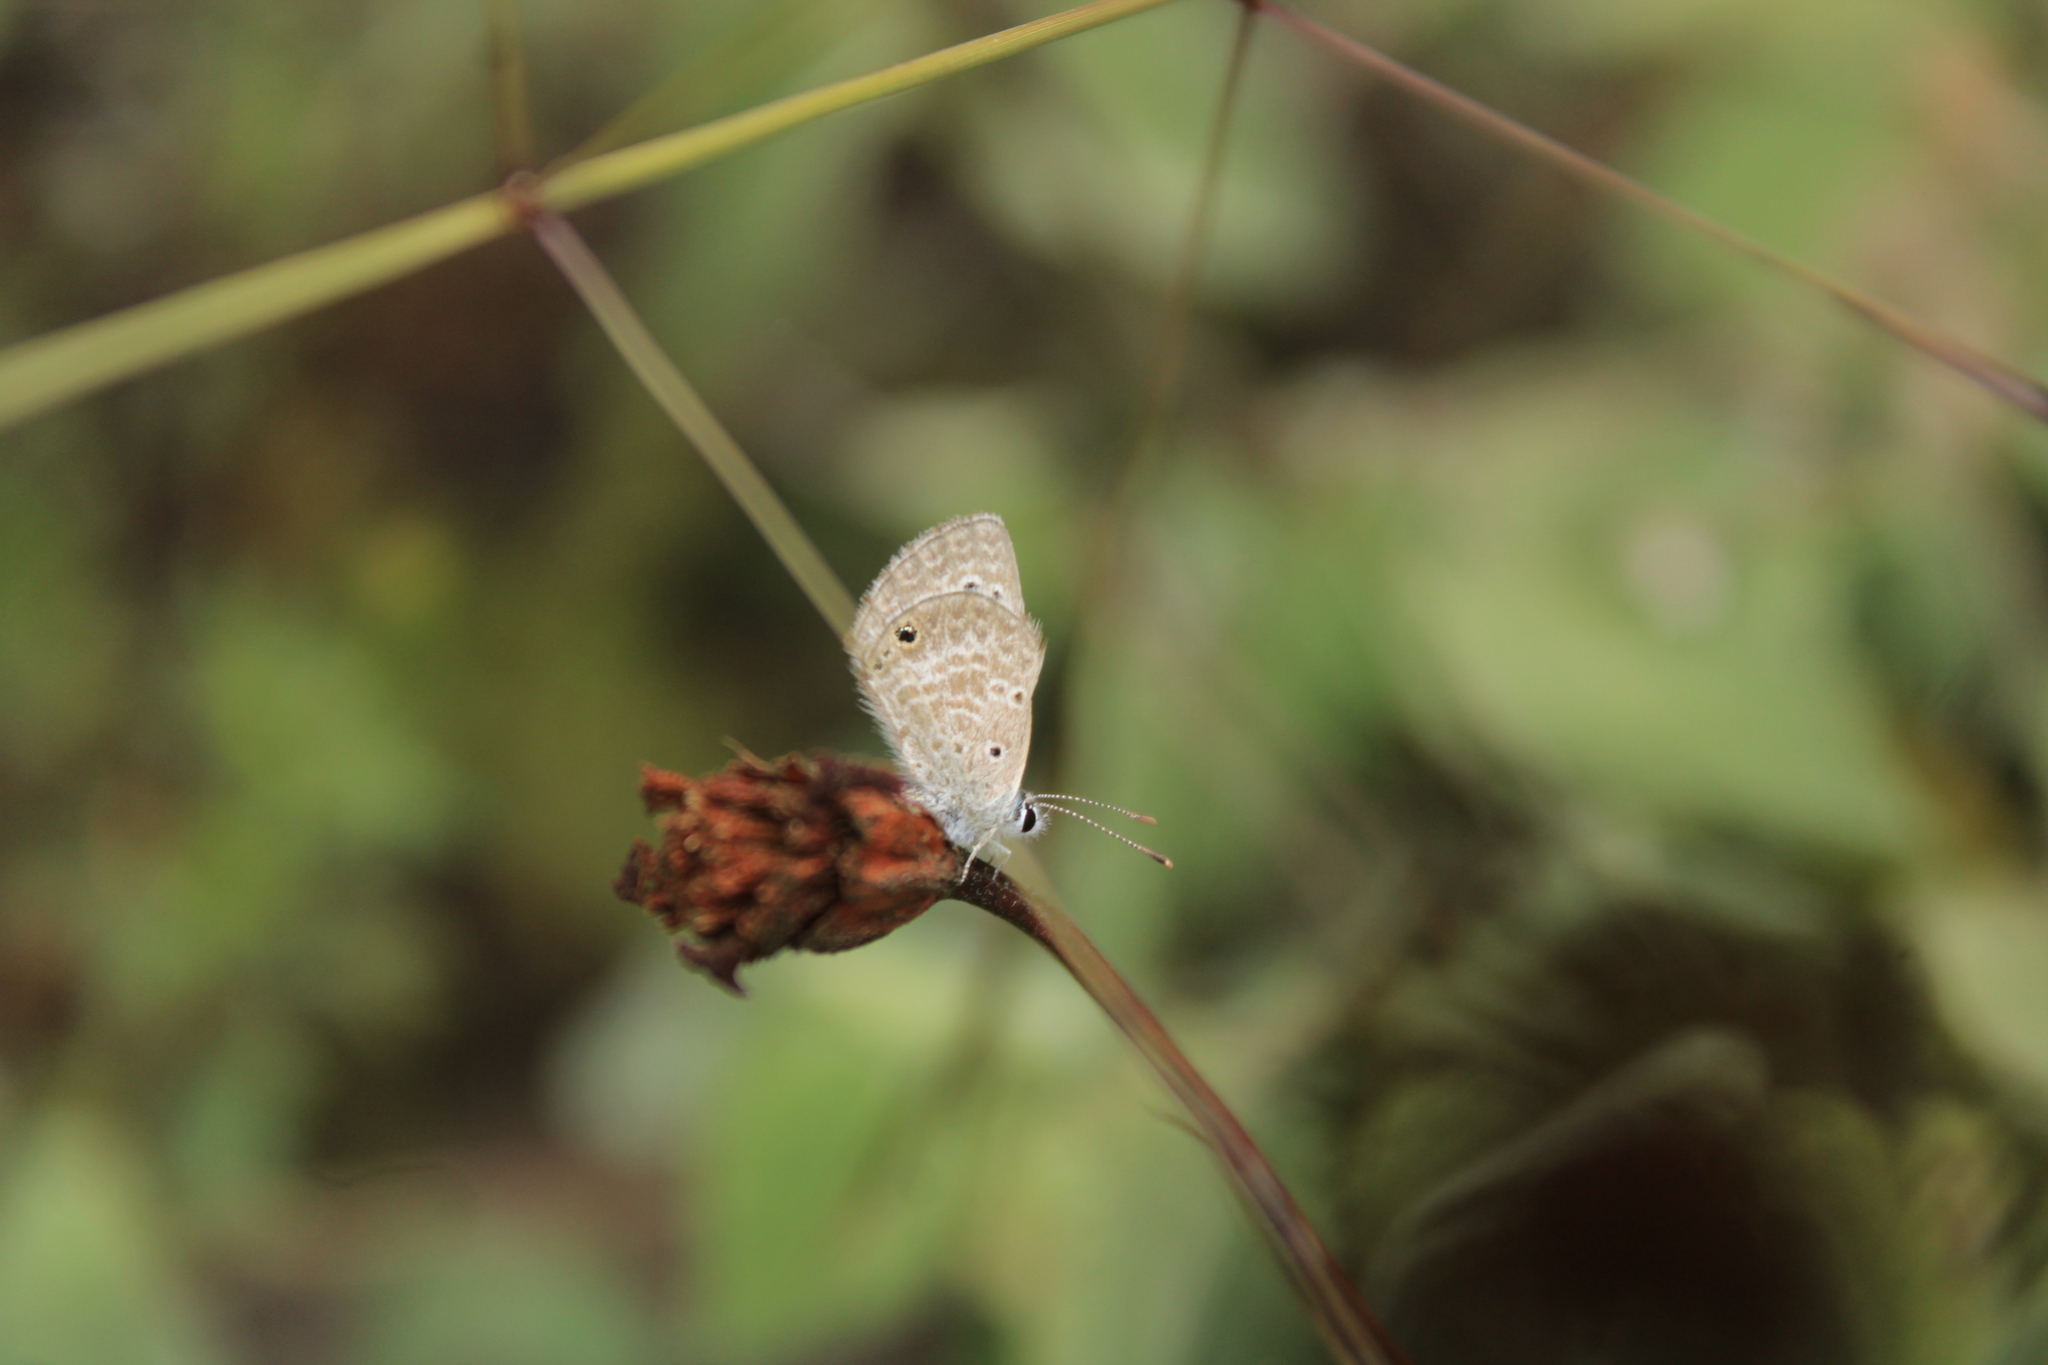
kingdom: Animalia
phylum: Arthropoda
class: Insecta
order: Lepidoptera
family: Lycaenidae
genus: Echinargus
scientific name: Echinargus isola
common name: Reakirt's blue
